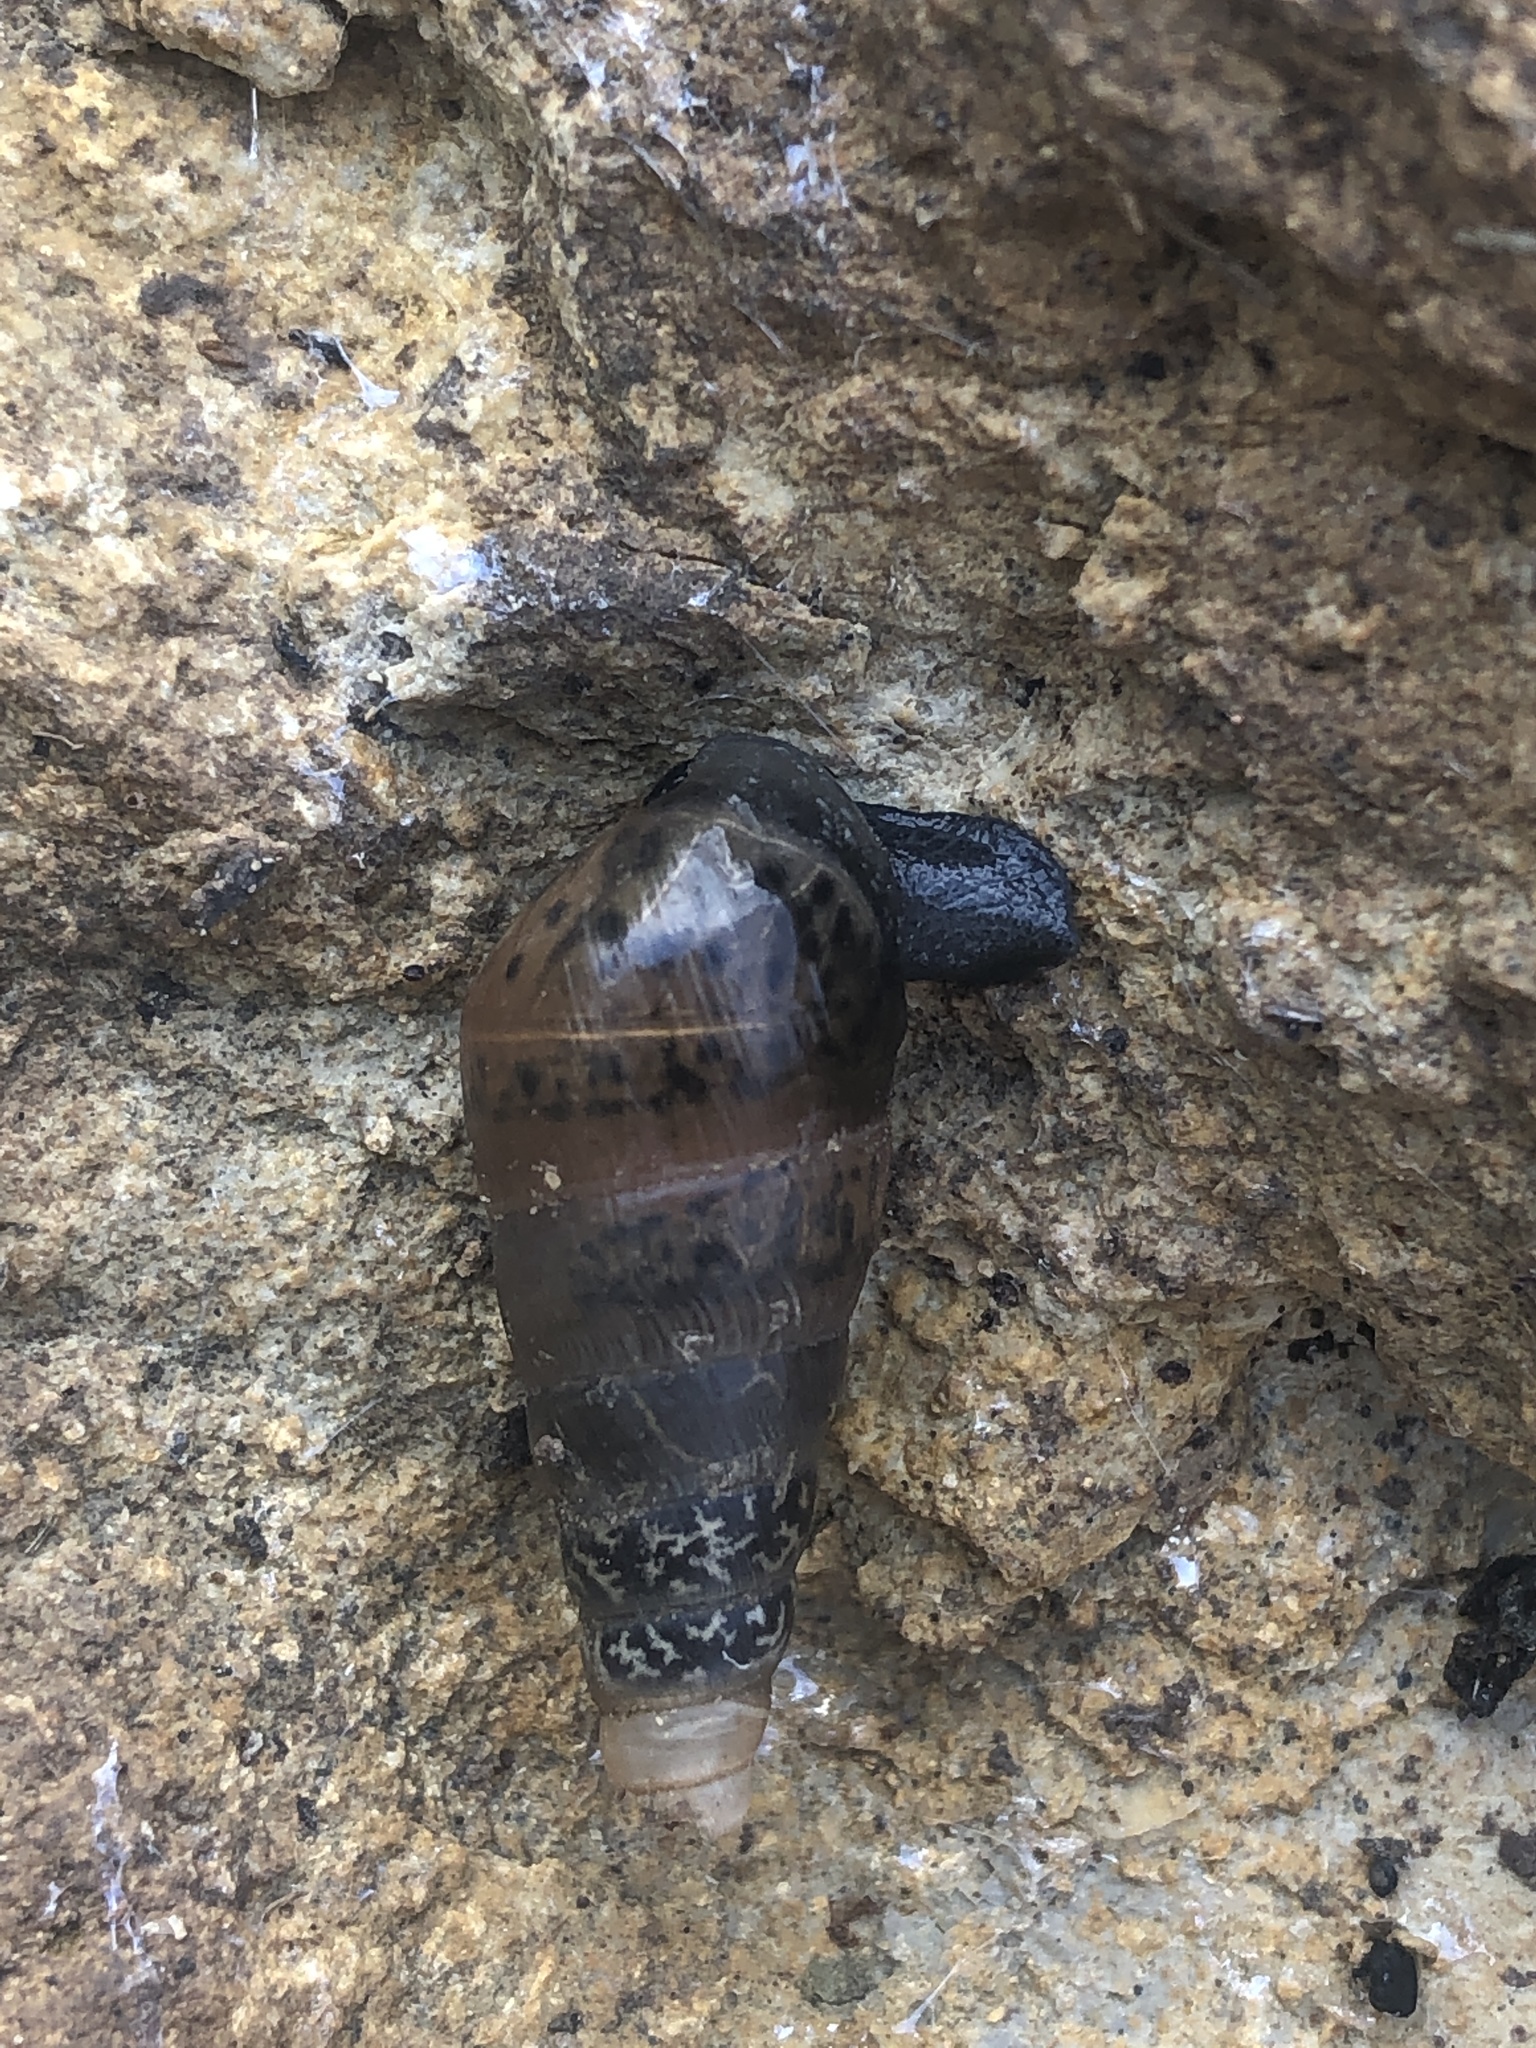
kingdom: Animalia
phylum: Mollusca
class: Gastropoda
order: Stylommatophora
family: Achatinidae
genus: Rumina
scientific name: Rumina decollata
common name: Decollate snail
